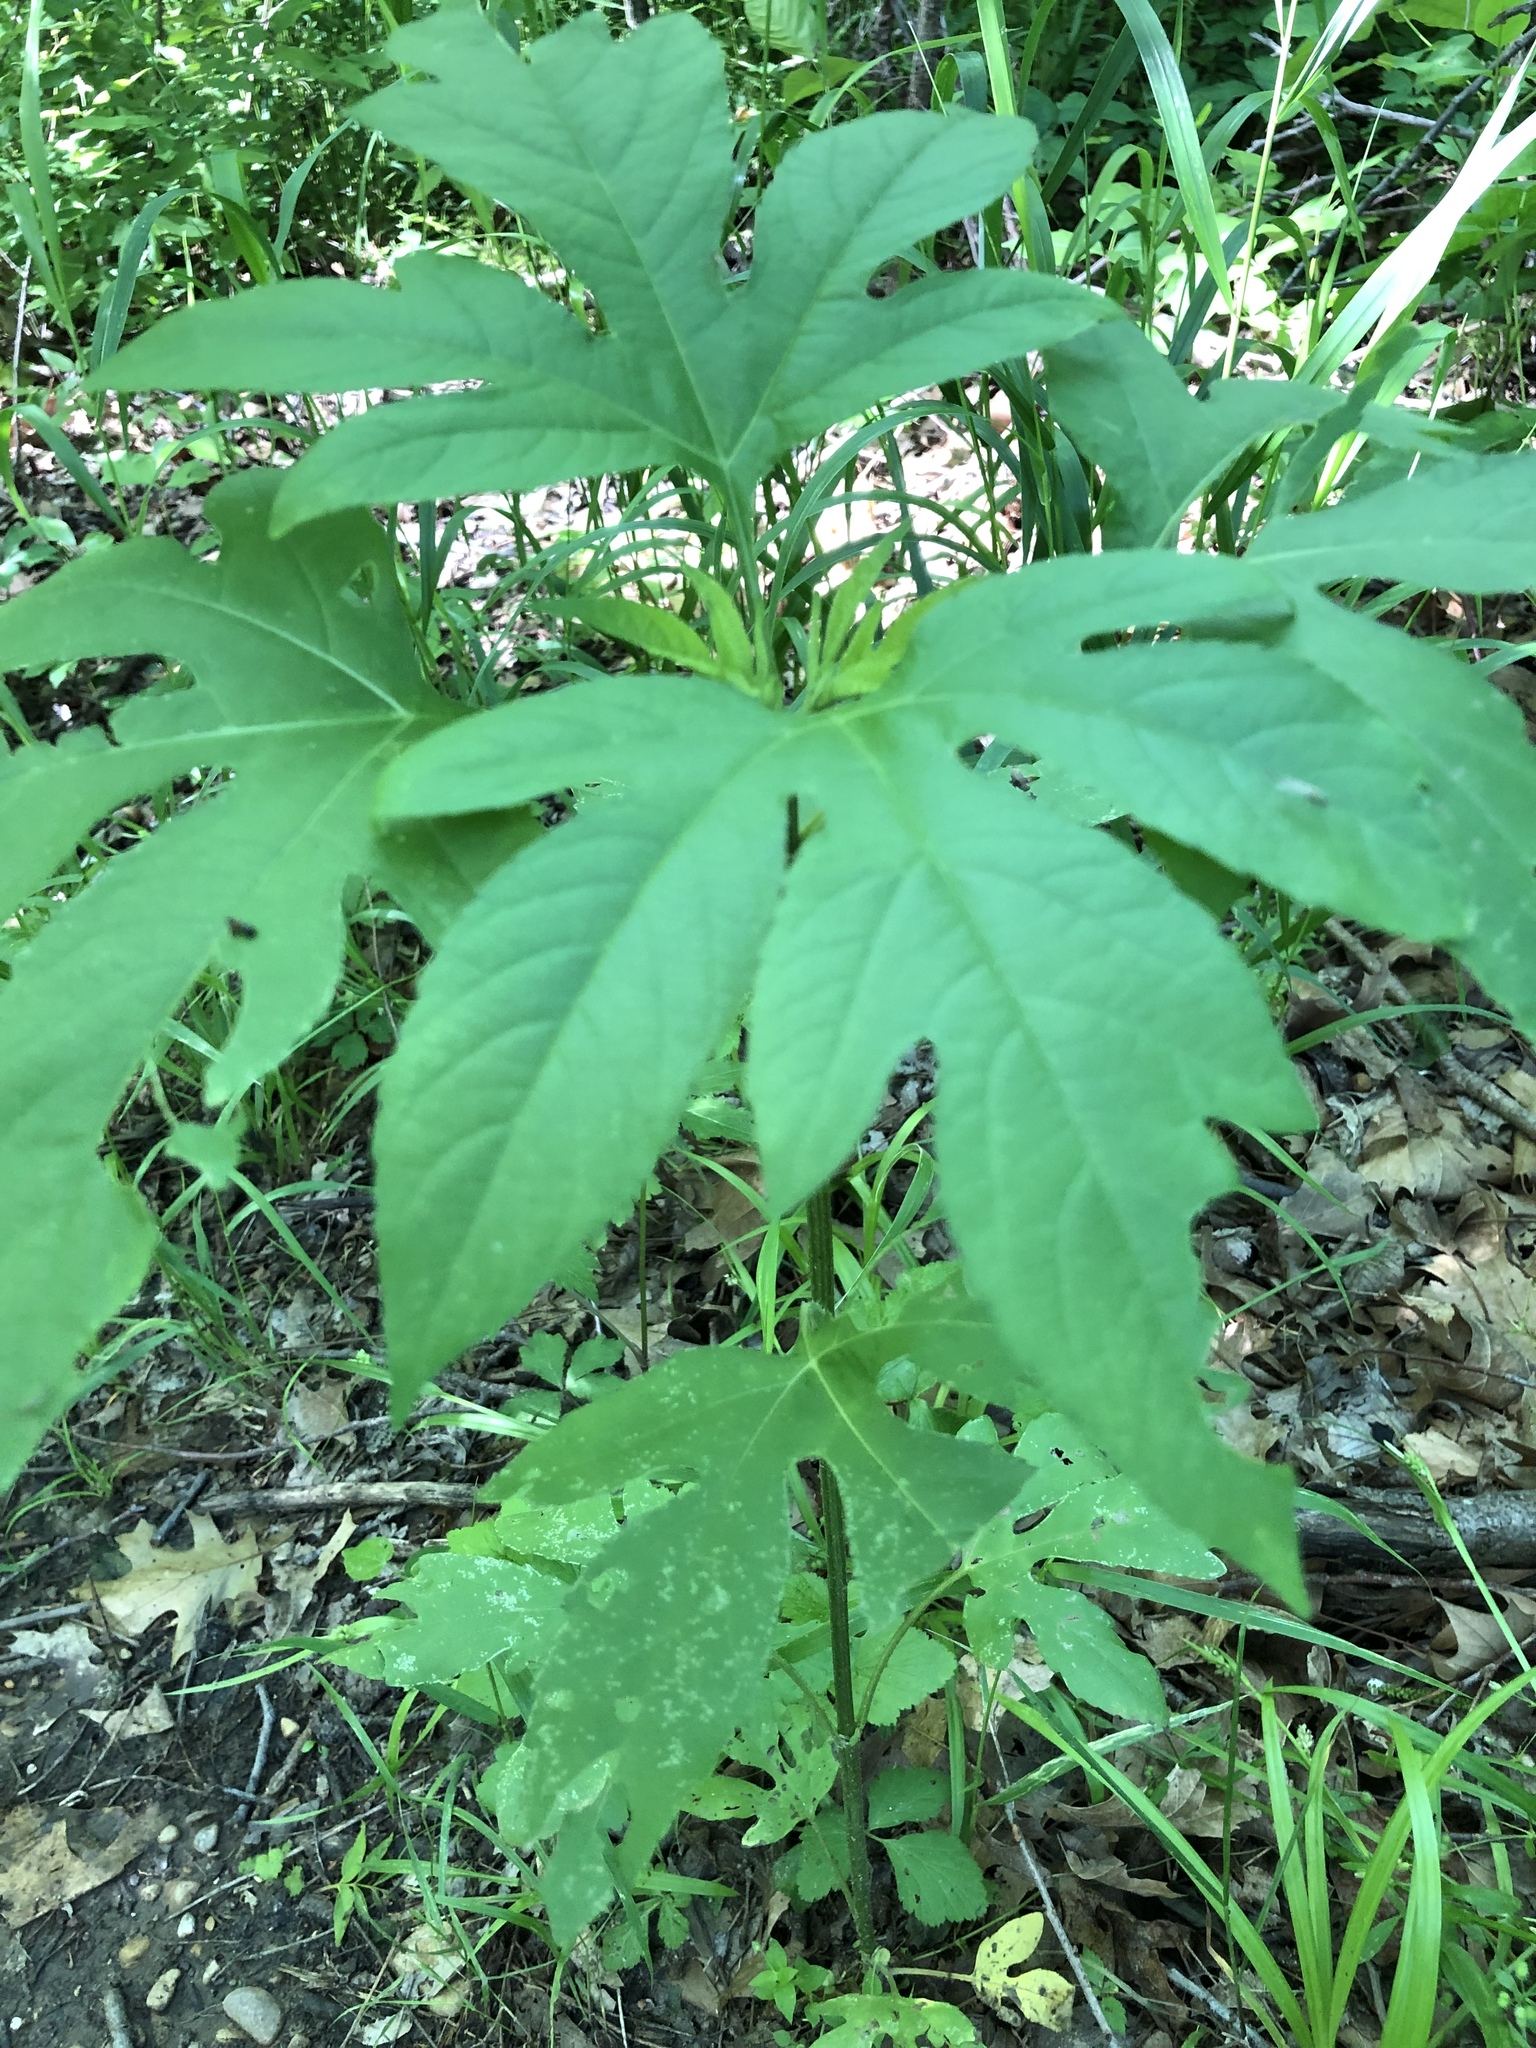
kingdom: Plantae
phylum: Tracheophyta
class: Magnoliopsida
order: Asterales
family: Asteraceae
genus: Ambrosia
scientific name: Ambrosia trifida
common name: Giant ragweed
